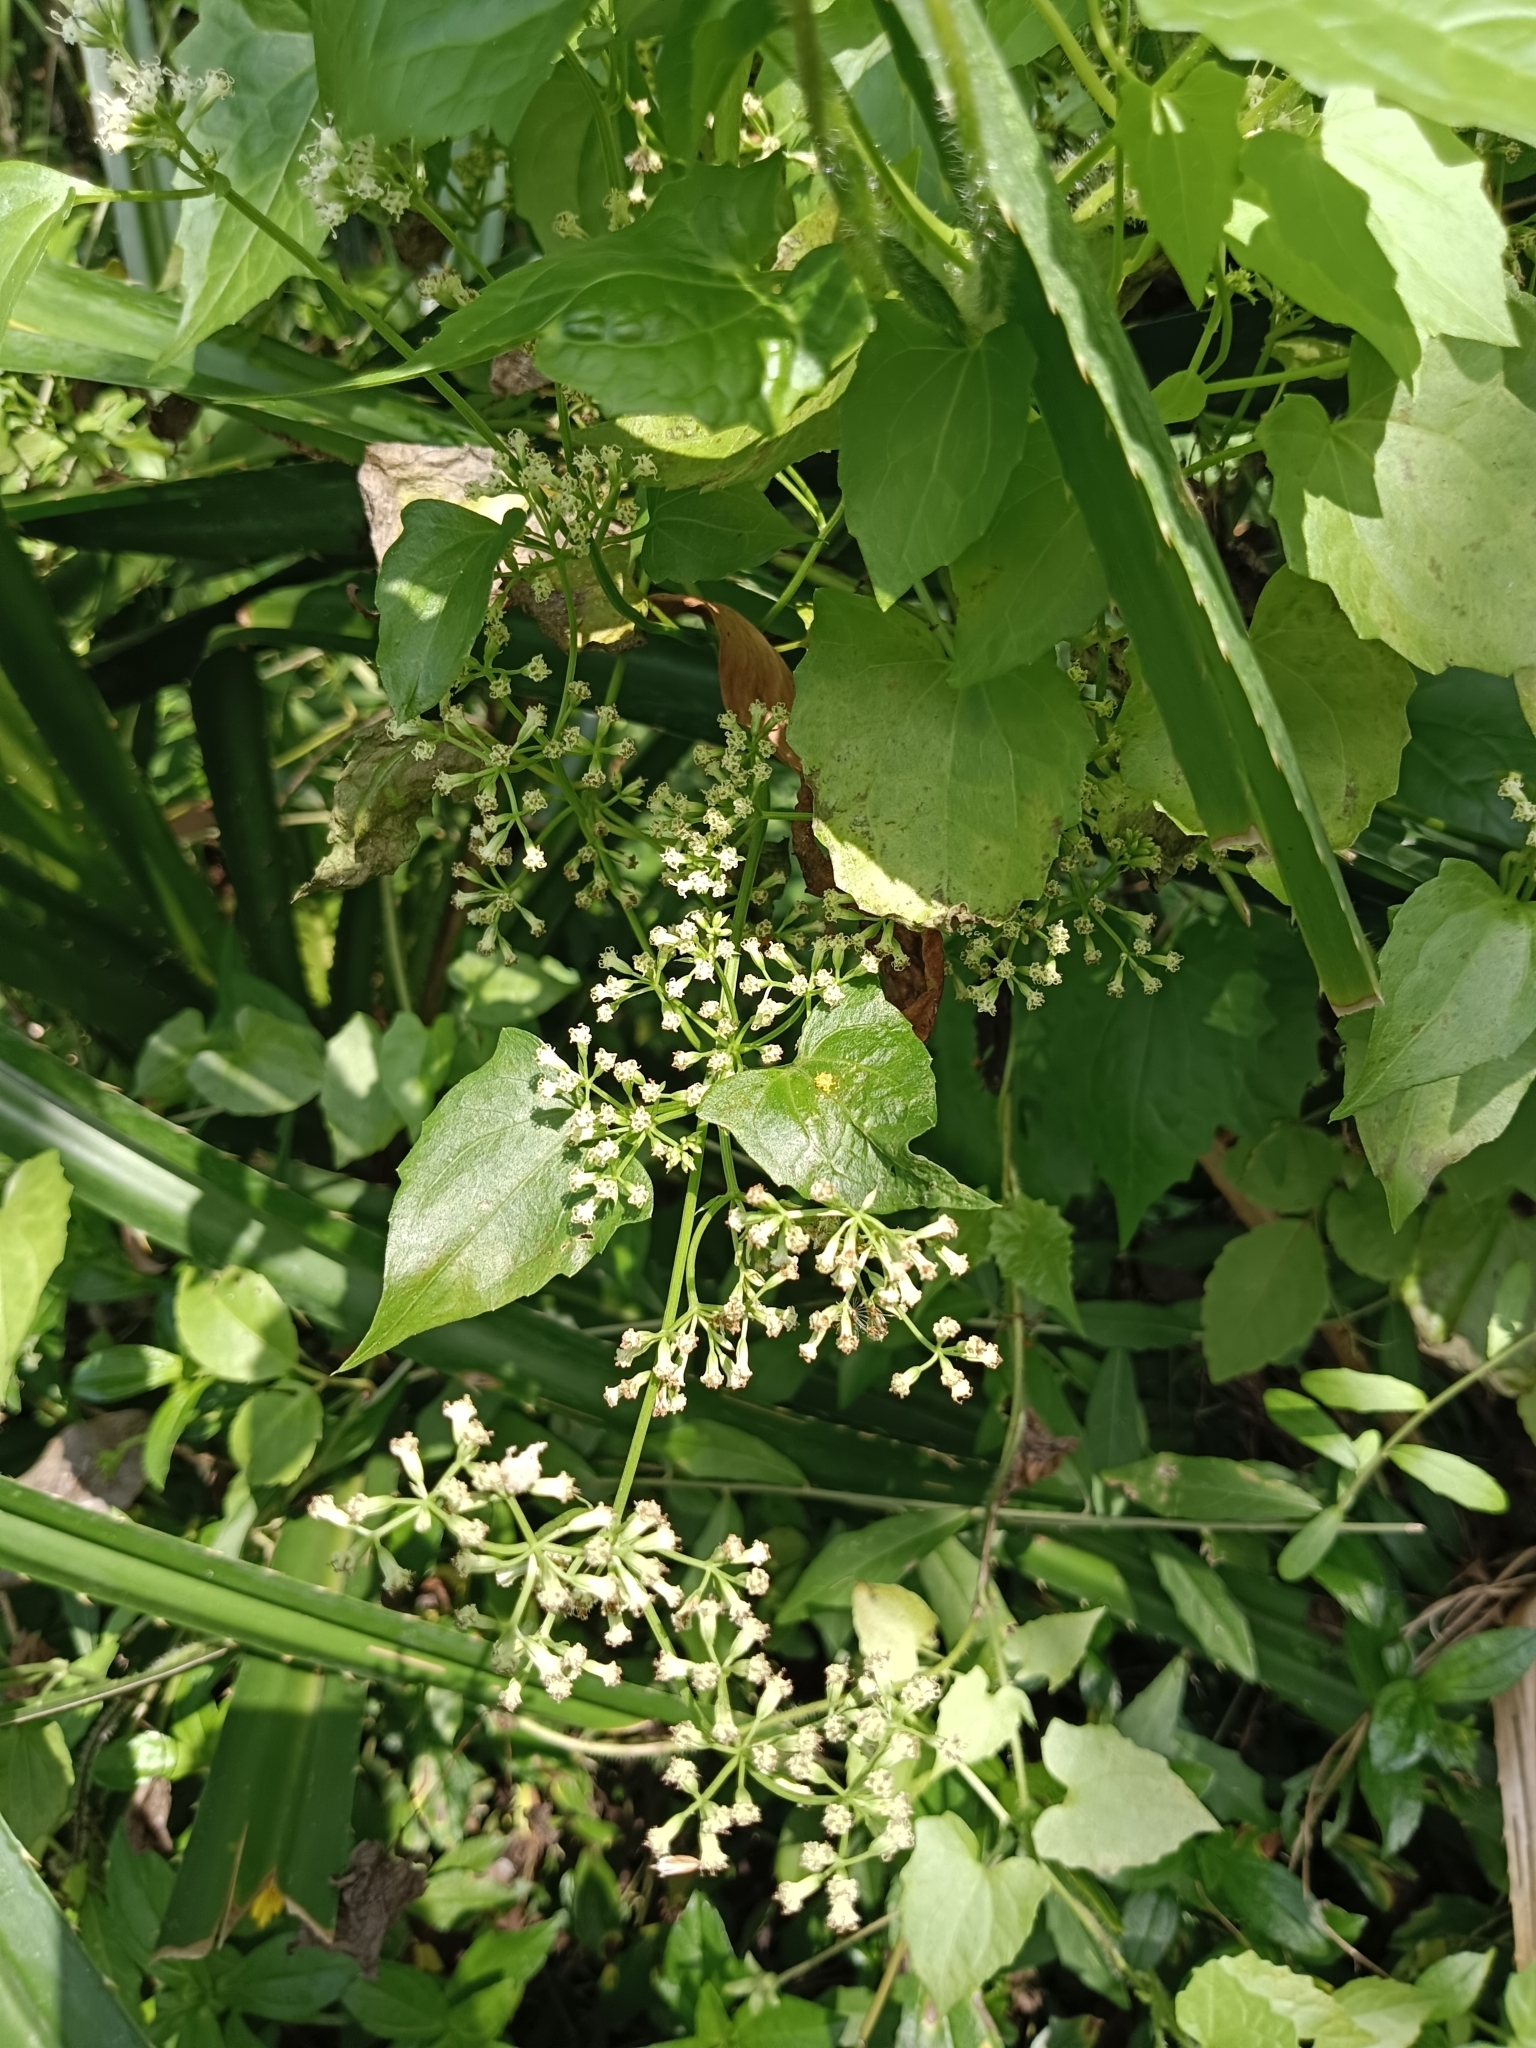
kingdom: Plantae
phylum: Tracheophyta
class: Magnoliopsida
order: Asterales
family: Asteraceae
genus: Mikania
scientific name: Mikania micrantha
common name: Mile-a-minute
